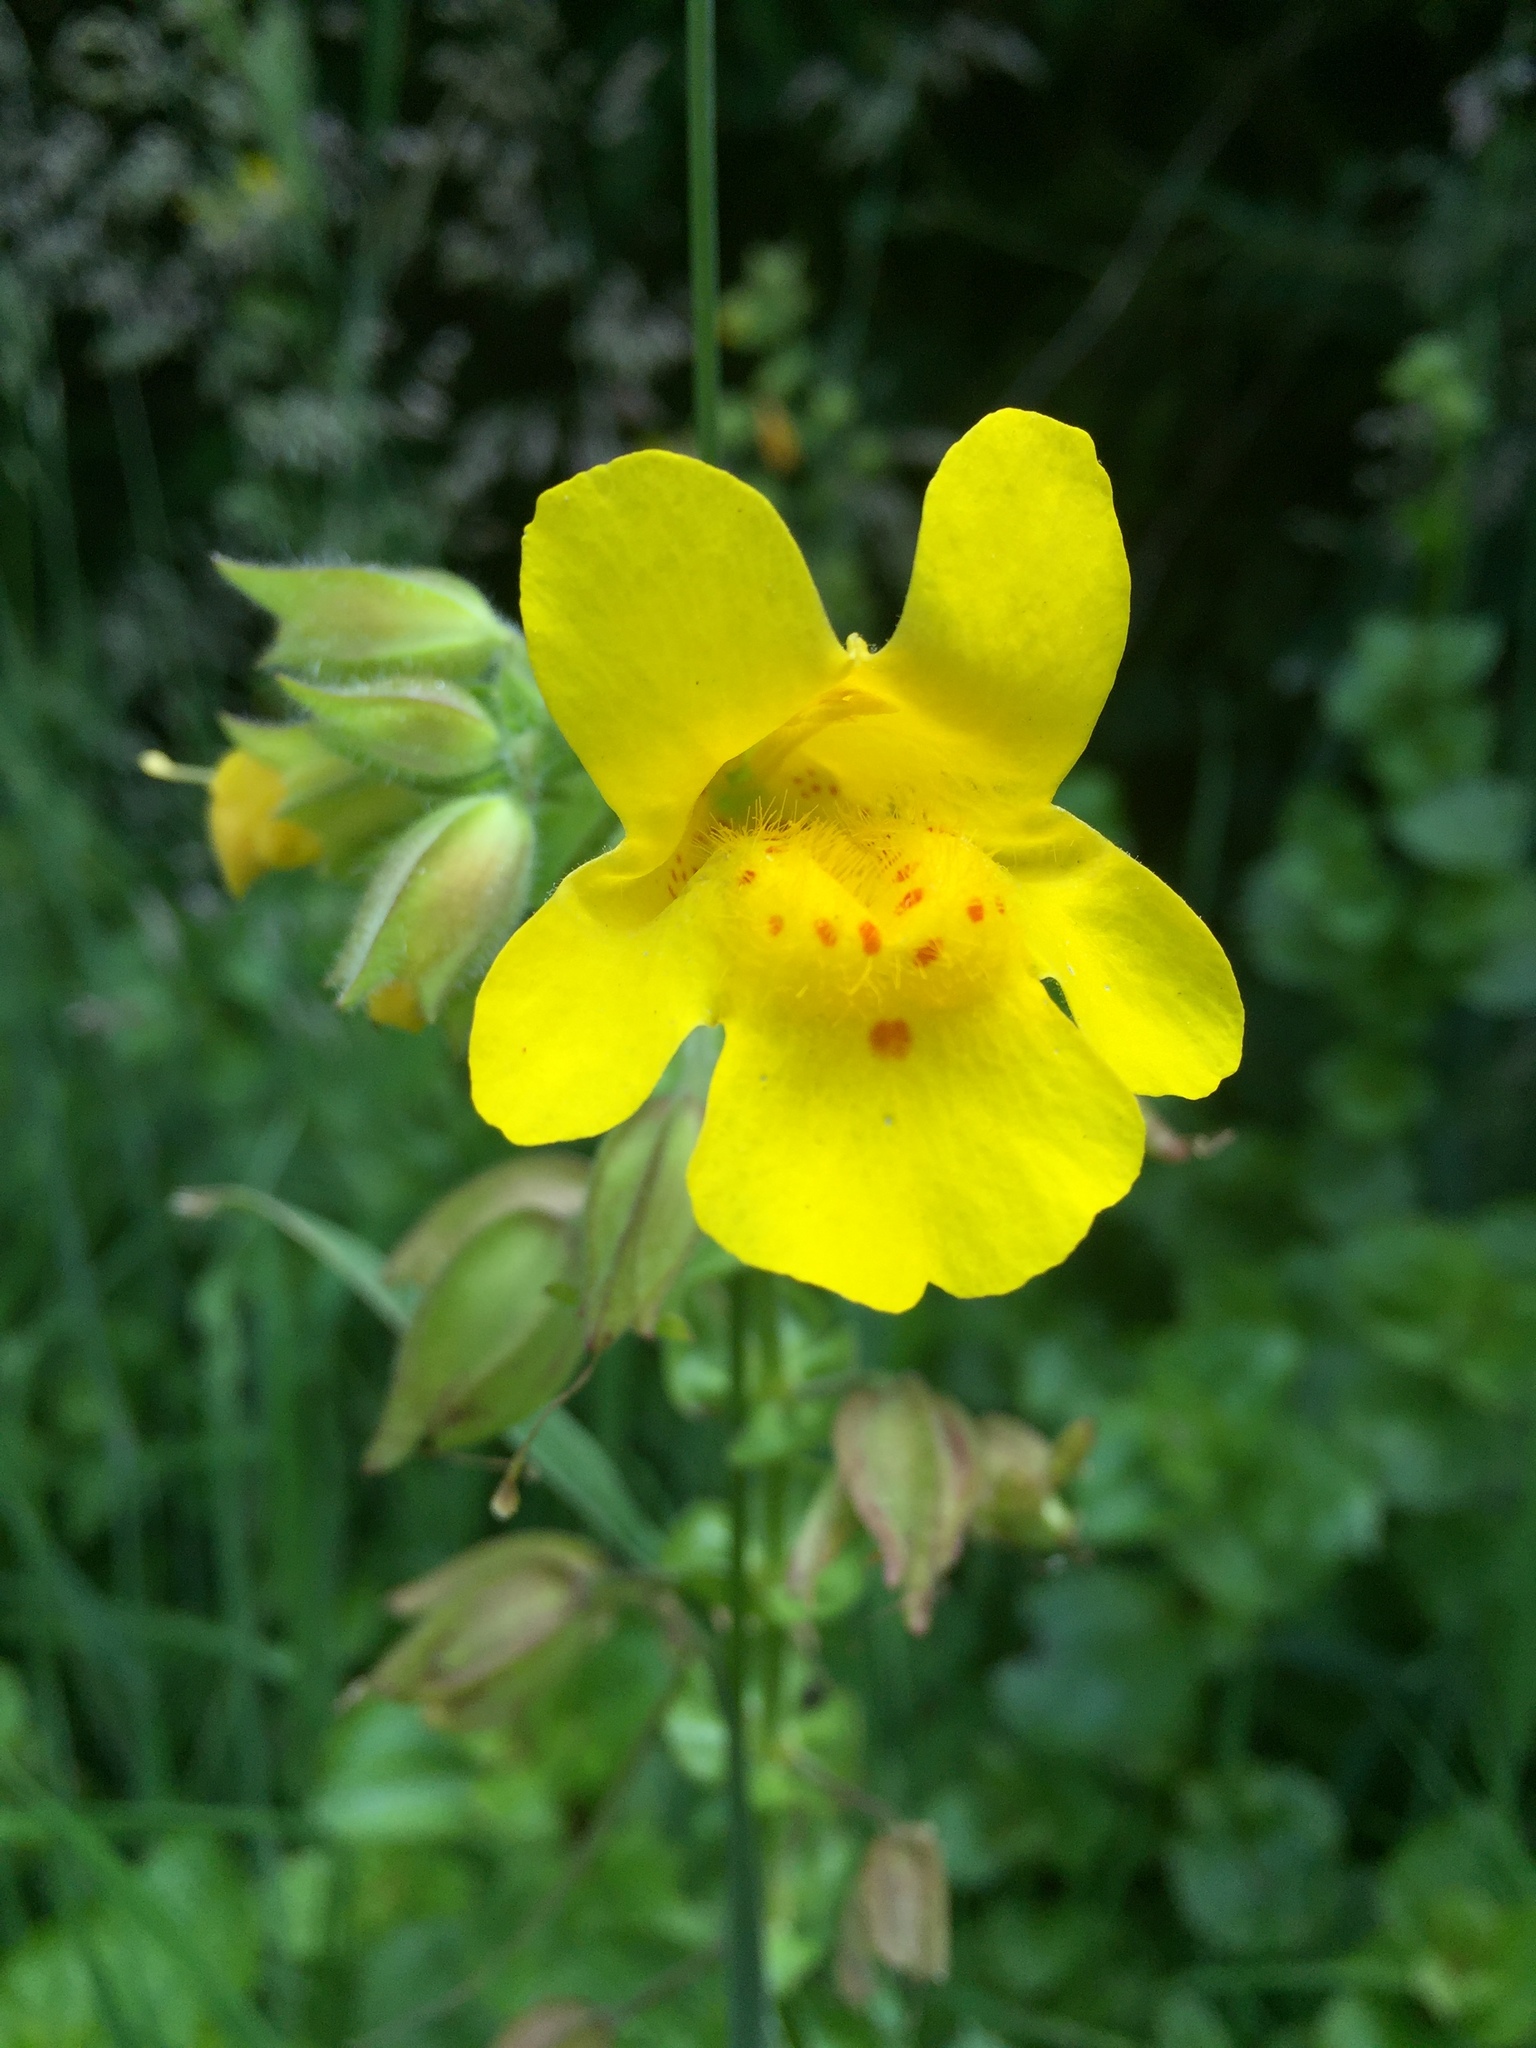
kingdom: Plantae
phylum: Tracheophyta
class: Magnoliopsida
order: Lamiales
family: Phrymaceae
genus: Erythranthe
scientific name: Erythranthe guttata
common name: Monkeyflower
